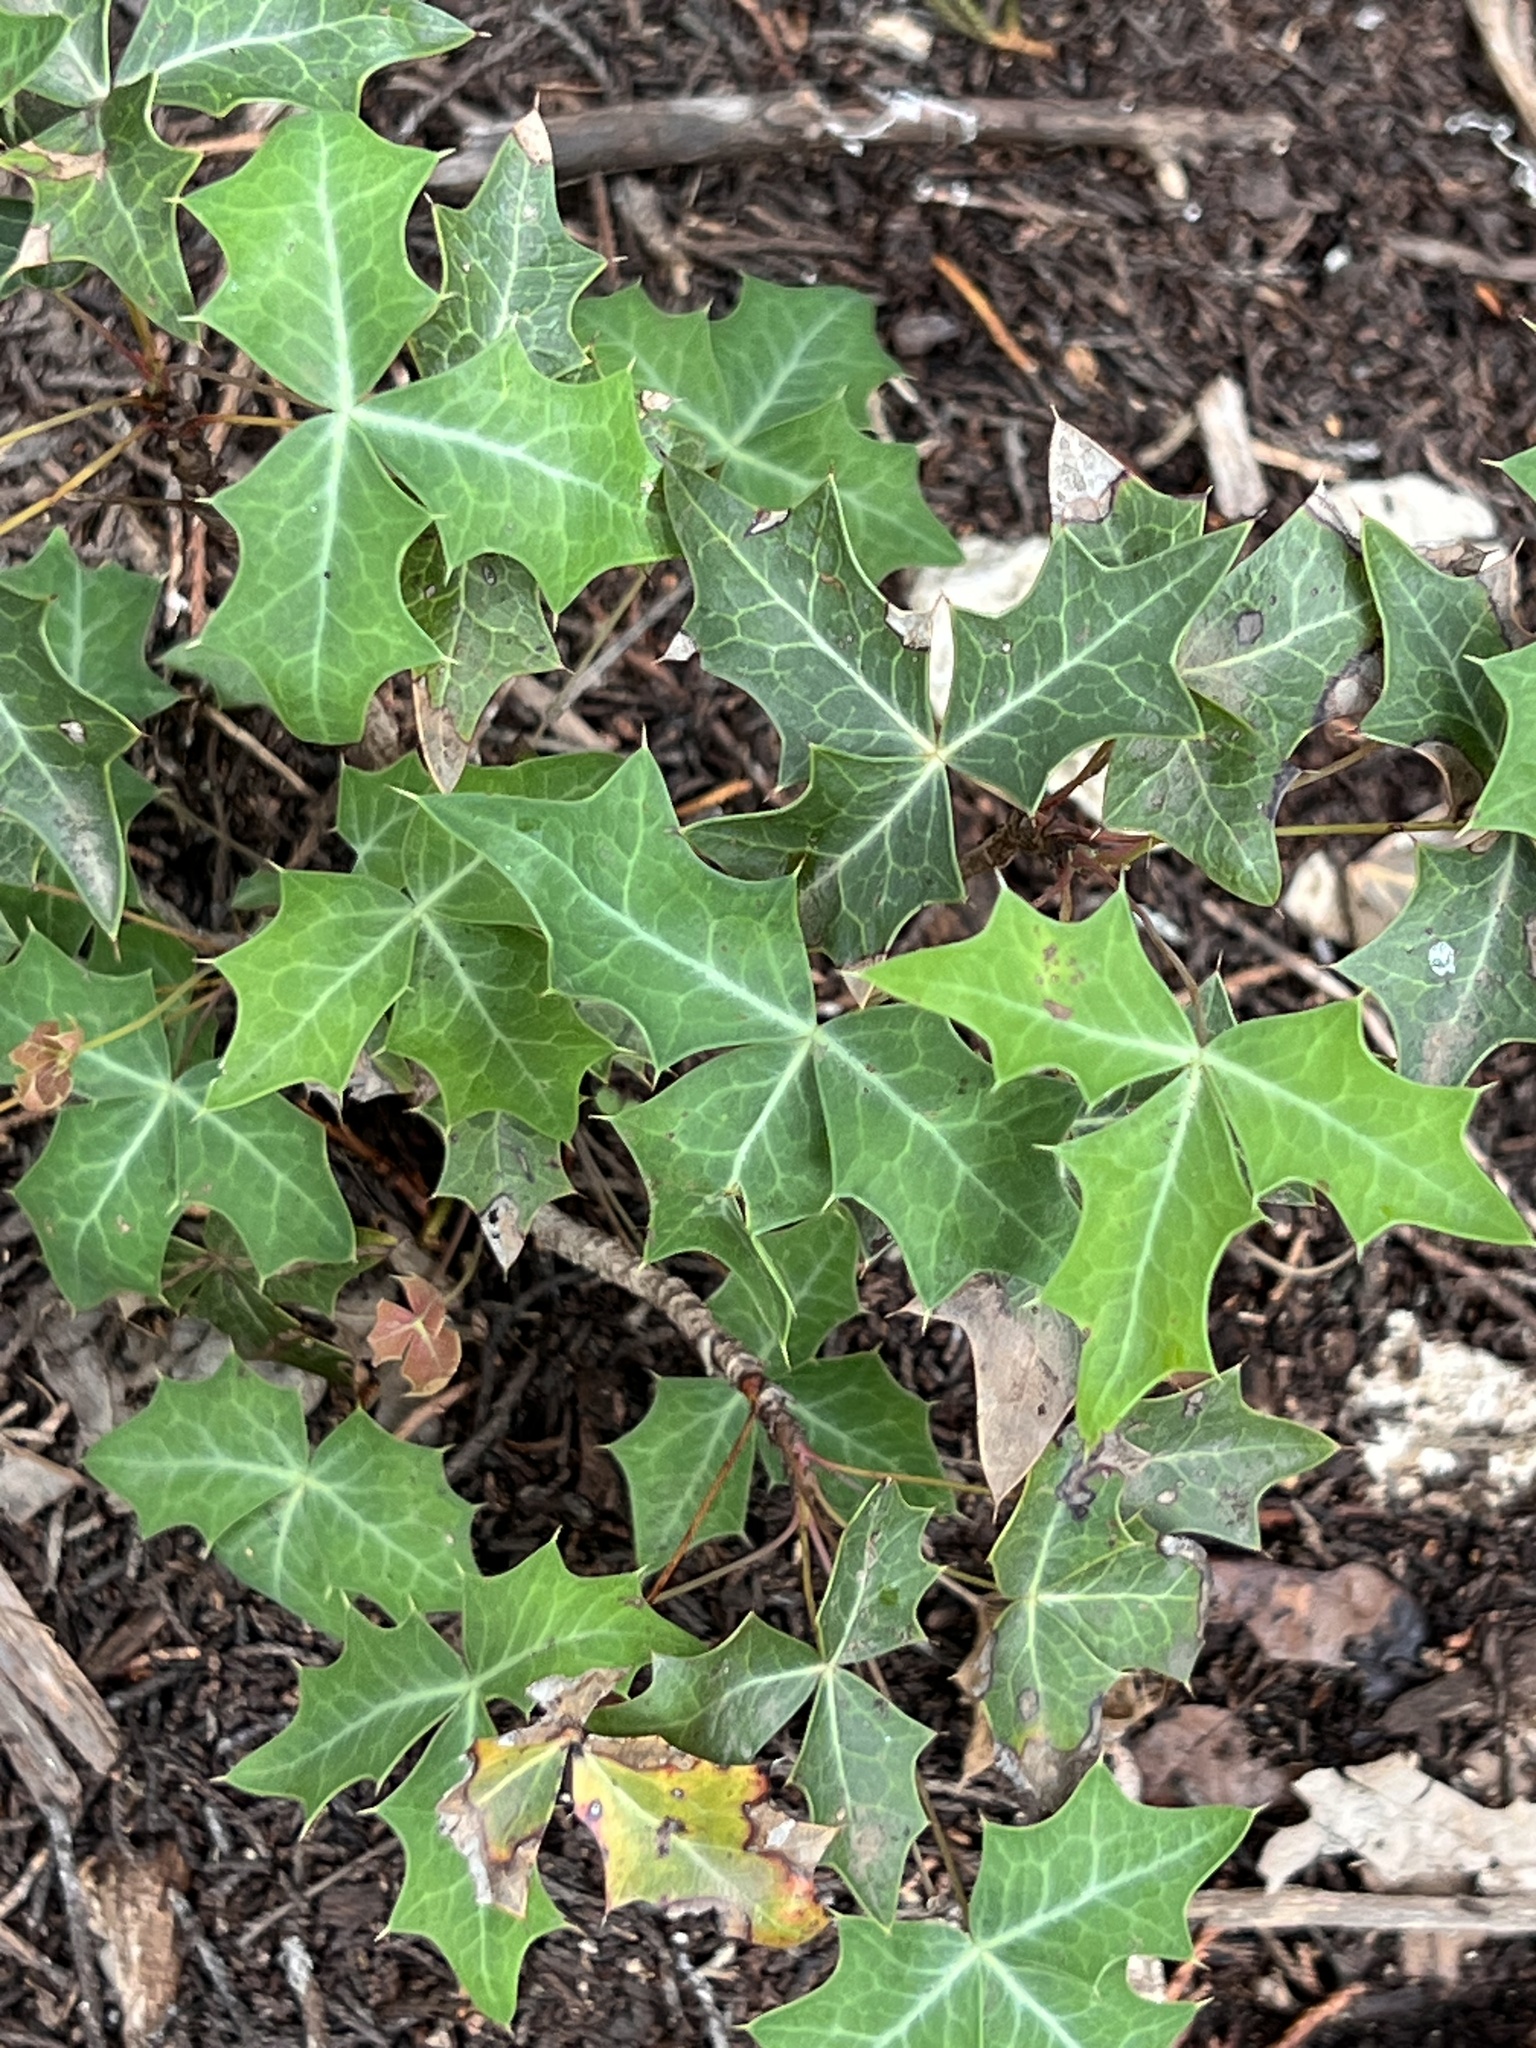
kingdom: Plantae
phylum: Tracheophyta
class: Magnoliopsida
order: Ranunculales
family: Berberidaceae
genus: Alloberberis
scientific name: Alloberberis trifoliolata
